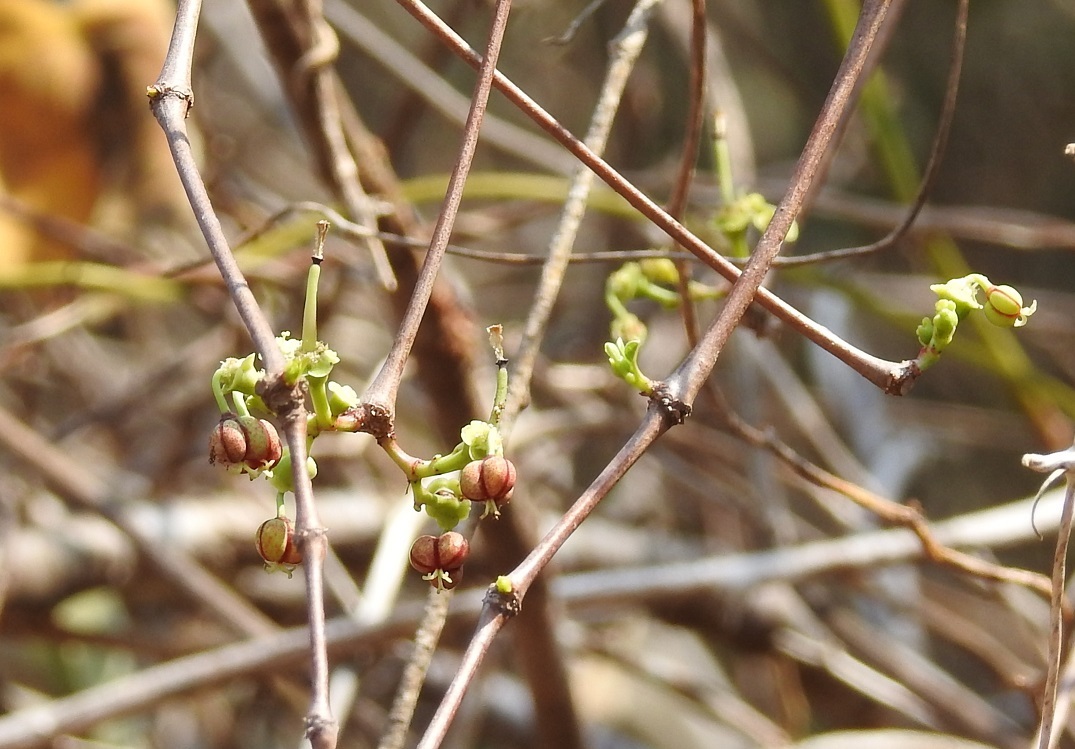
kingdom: Plantae
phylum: Tracheophyta
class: Magnoliopsida
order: Malpighiales
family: Euphorbiaceae
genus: Euphorbia
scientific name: Euphorbia schlechtendalii
